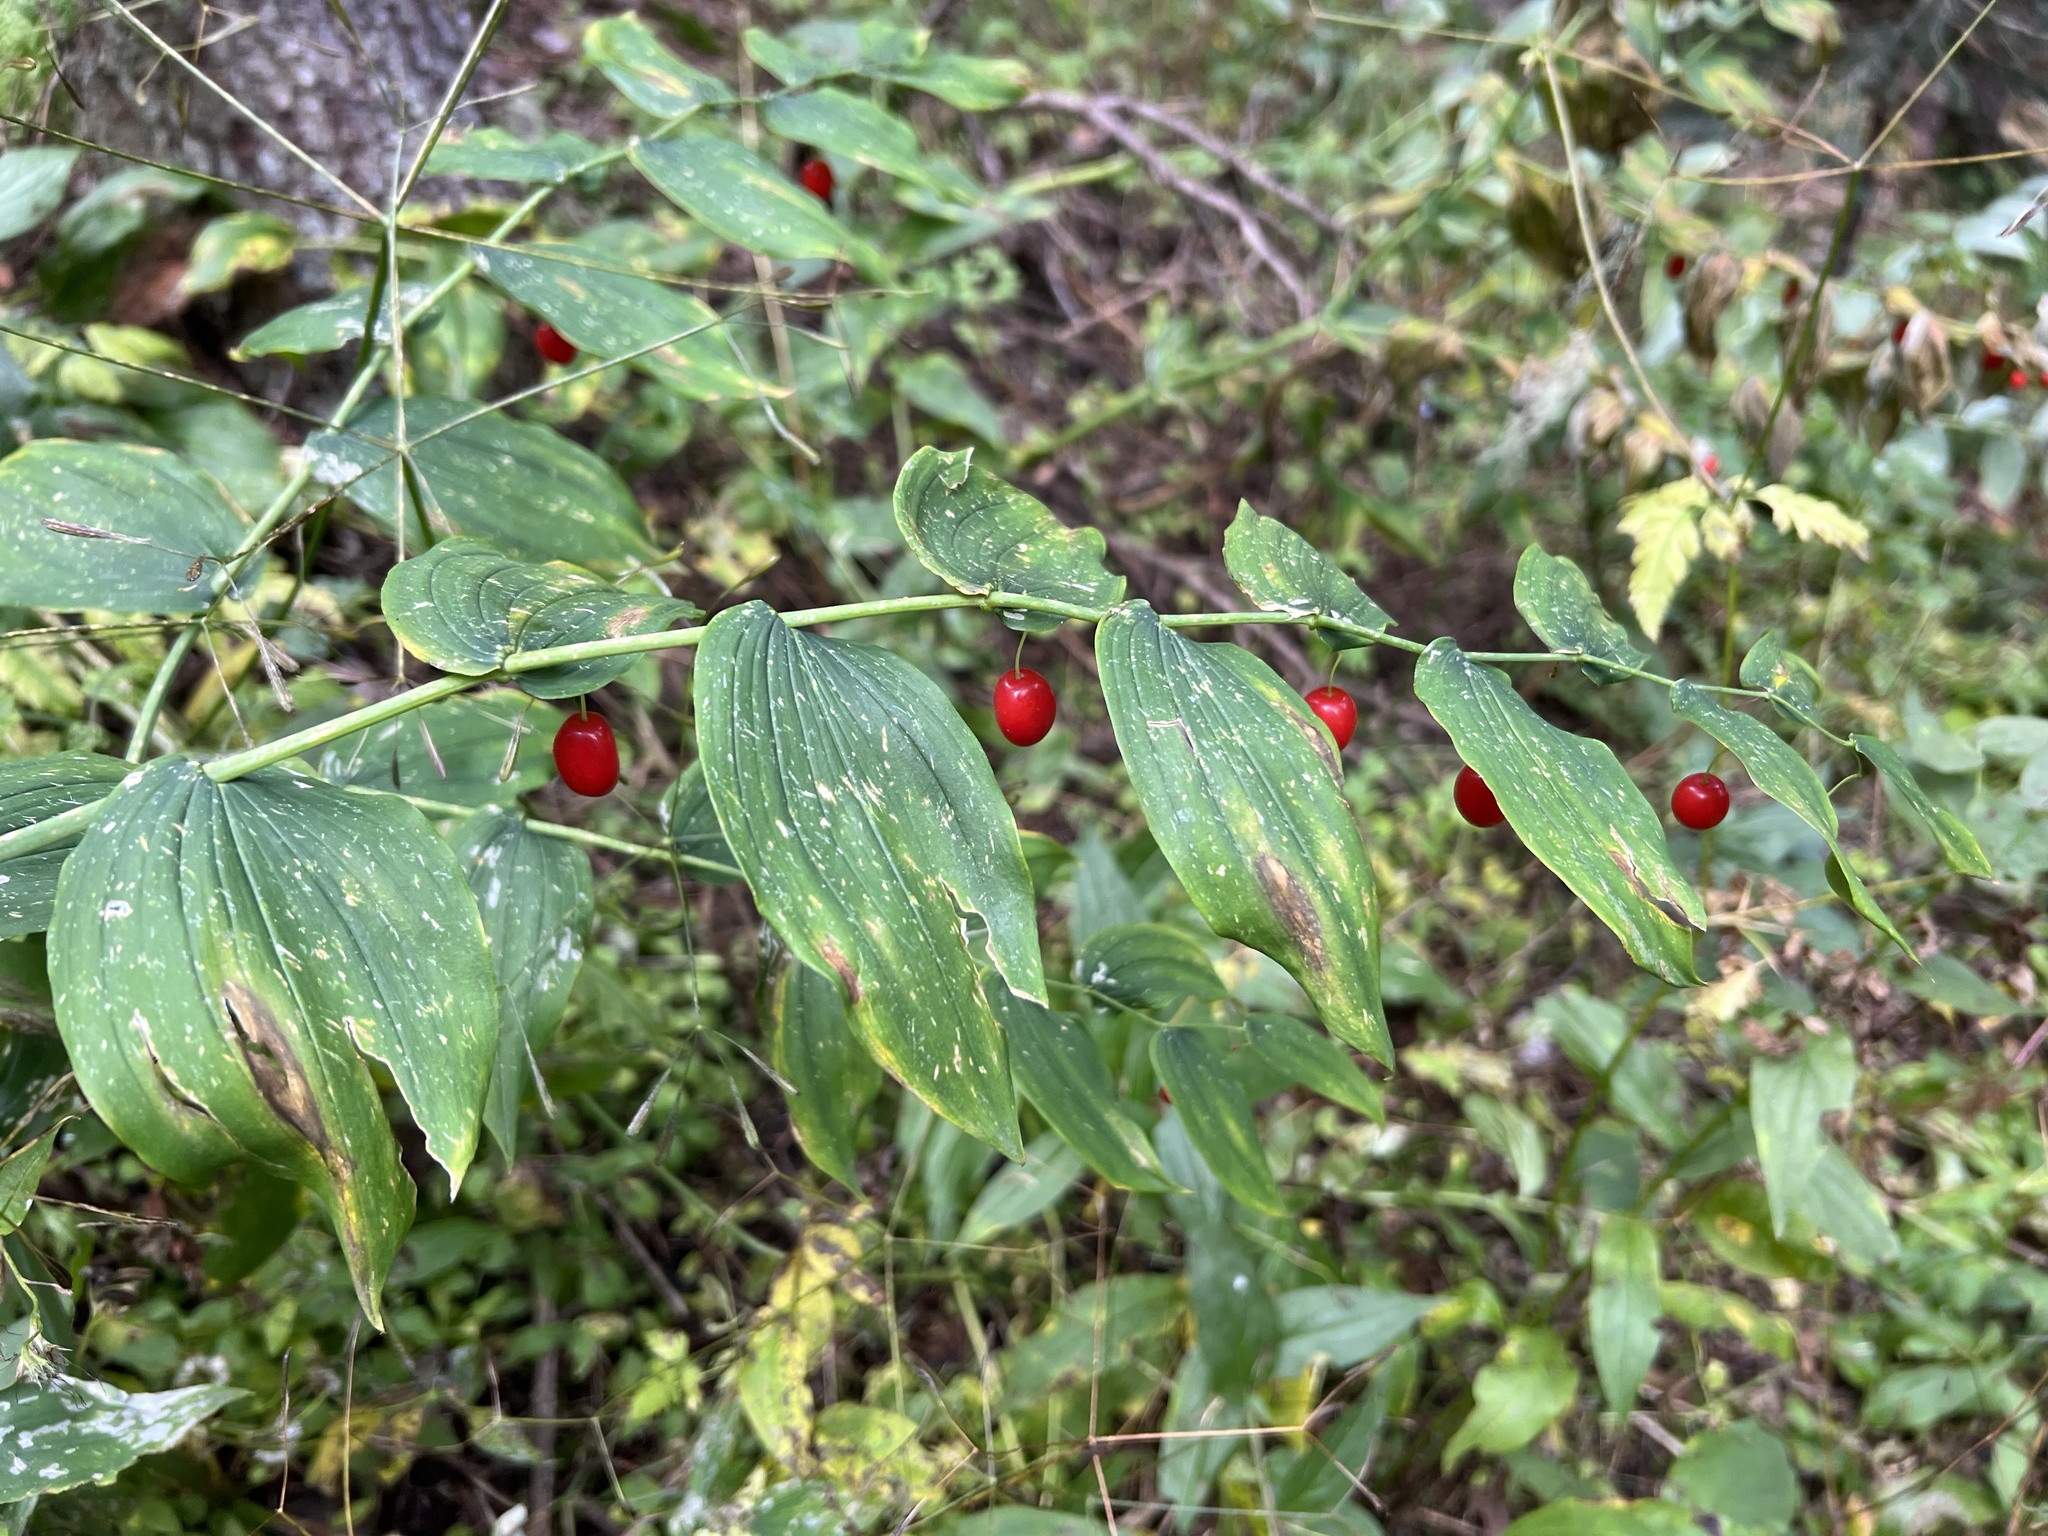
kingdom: Plantae
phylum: Tracheophyta
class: Liliopsida
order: Liliales
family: Liliaceae
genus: Streptopus
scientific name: Streptopus amplexifolius
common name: Clasp twisted stalk
